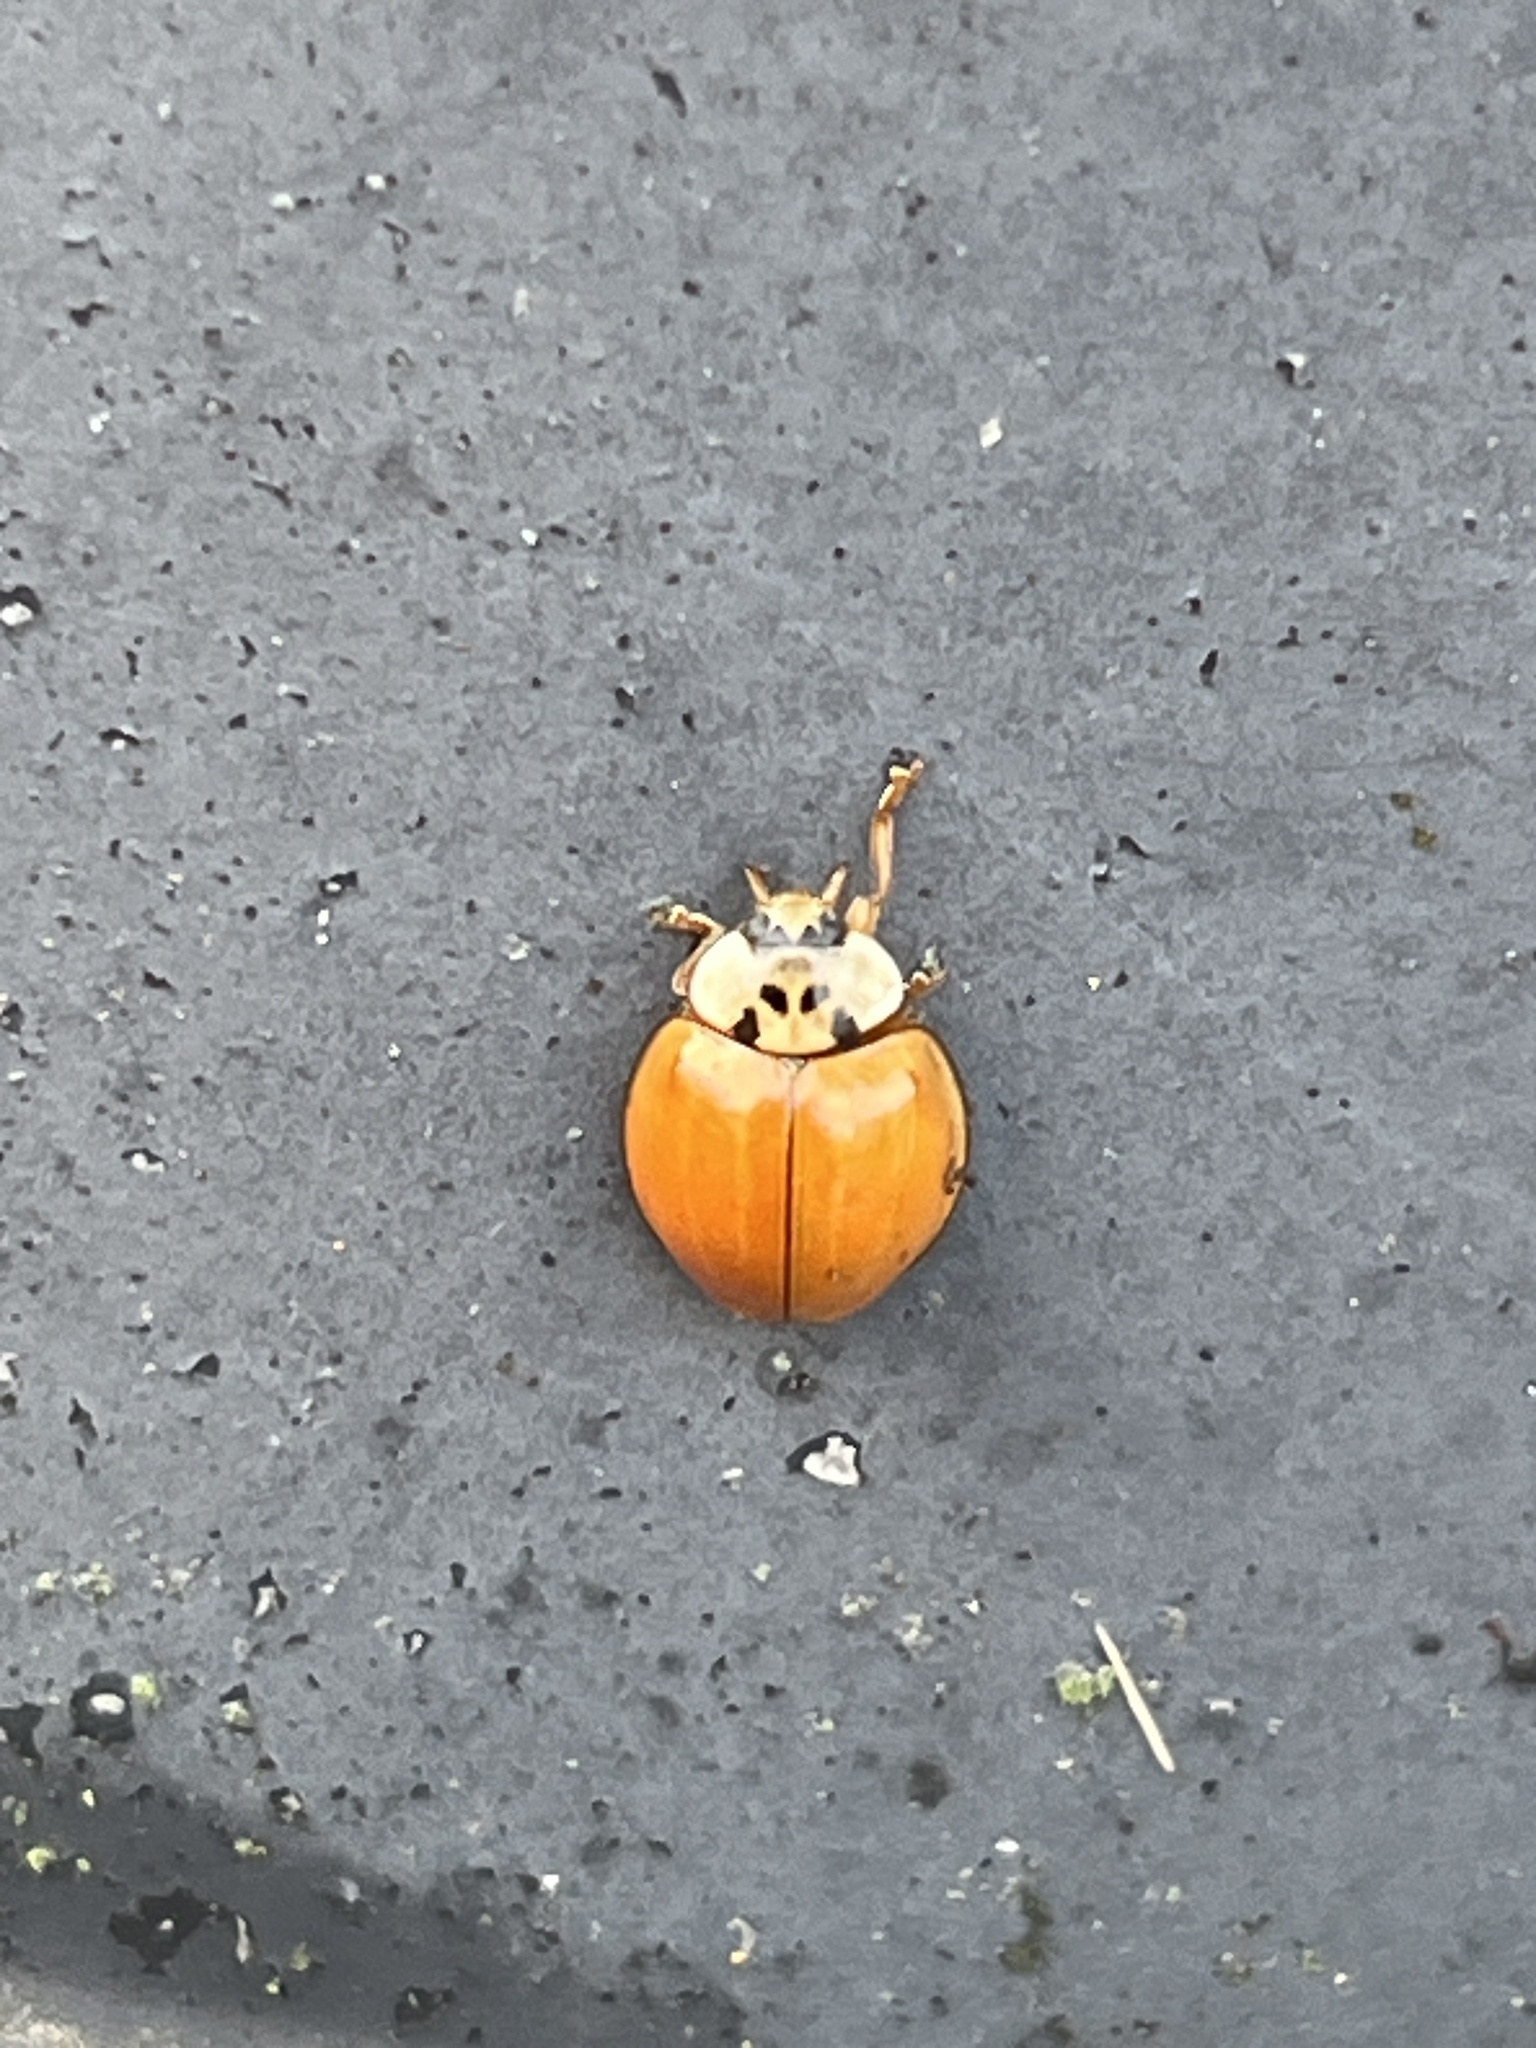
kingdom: Animalia
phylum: Arthropoda
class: Insecta
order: Coleoptera
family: Coccinellidae
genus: Harmonia
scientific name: Harmonia axyridis
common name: Harlequin ladybird
